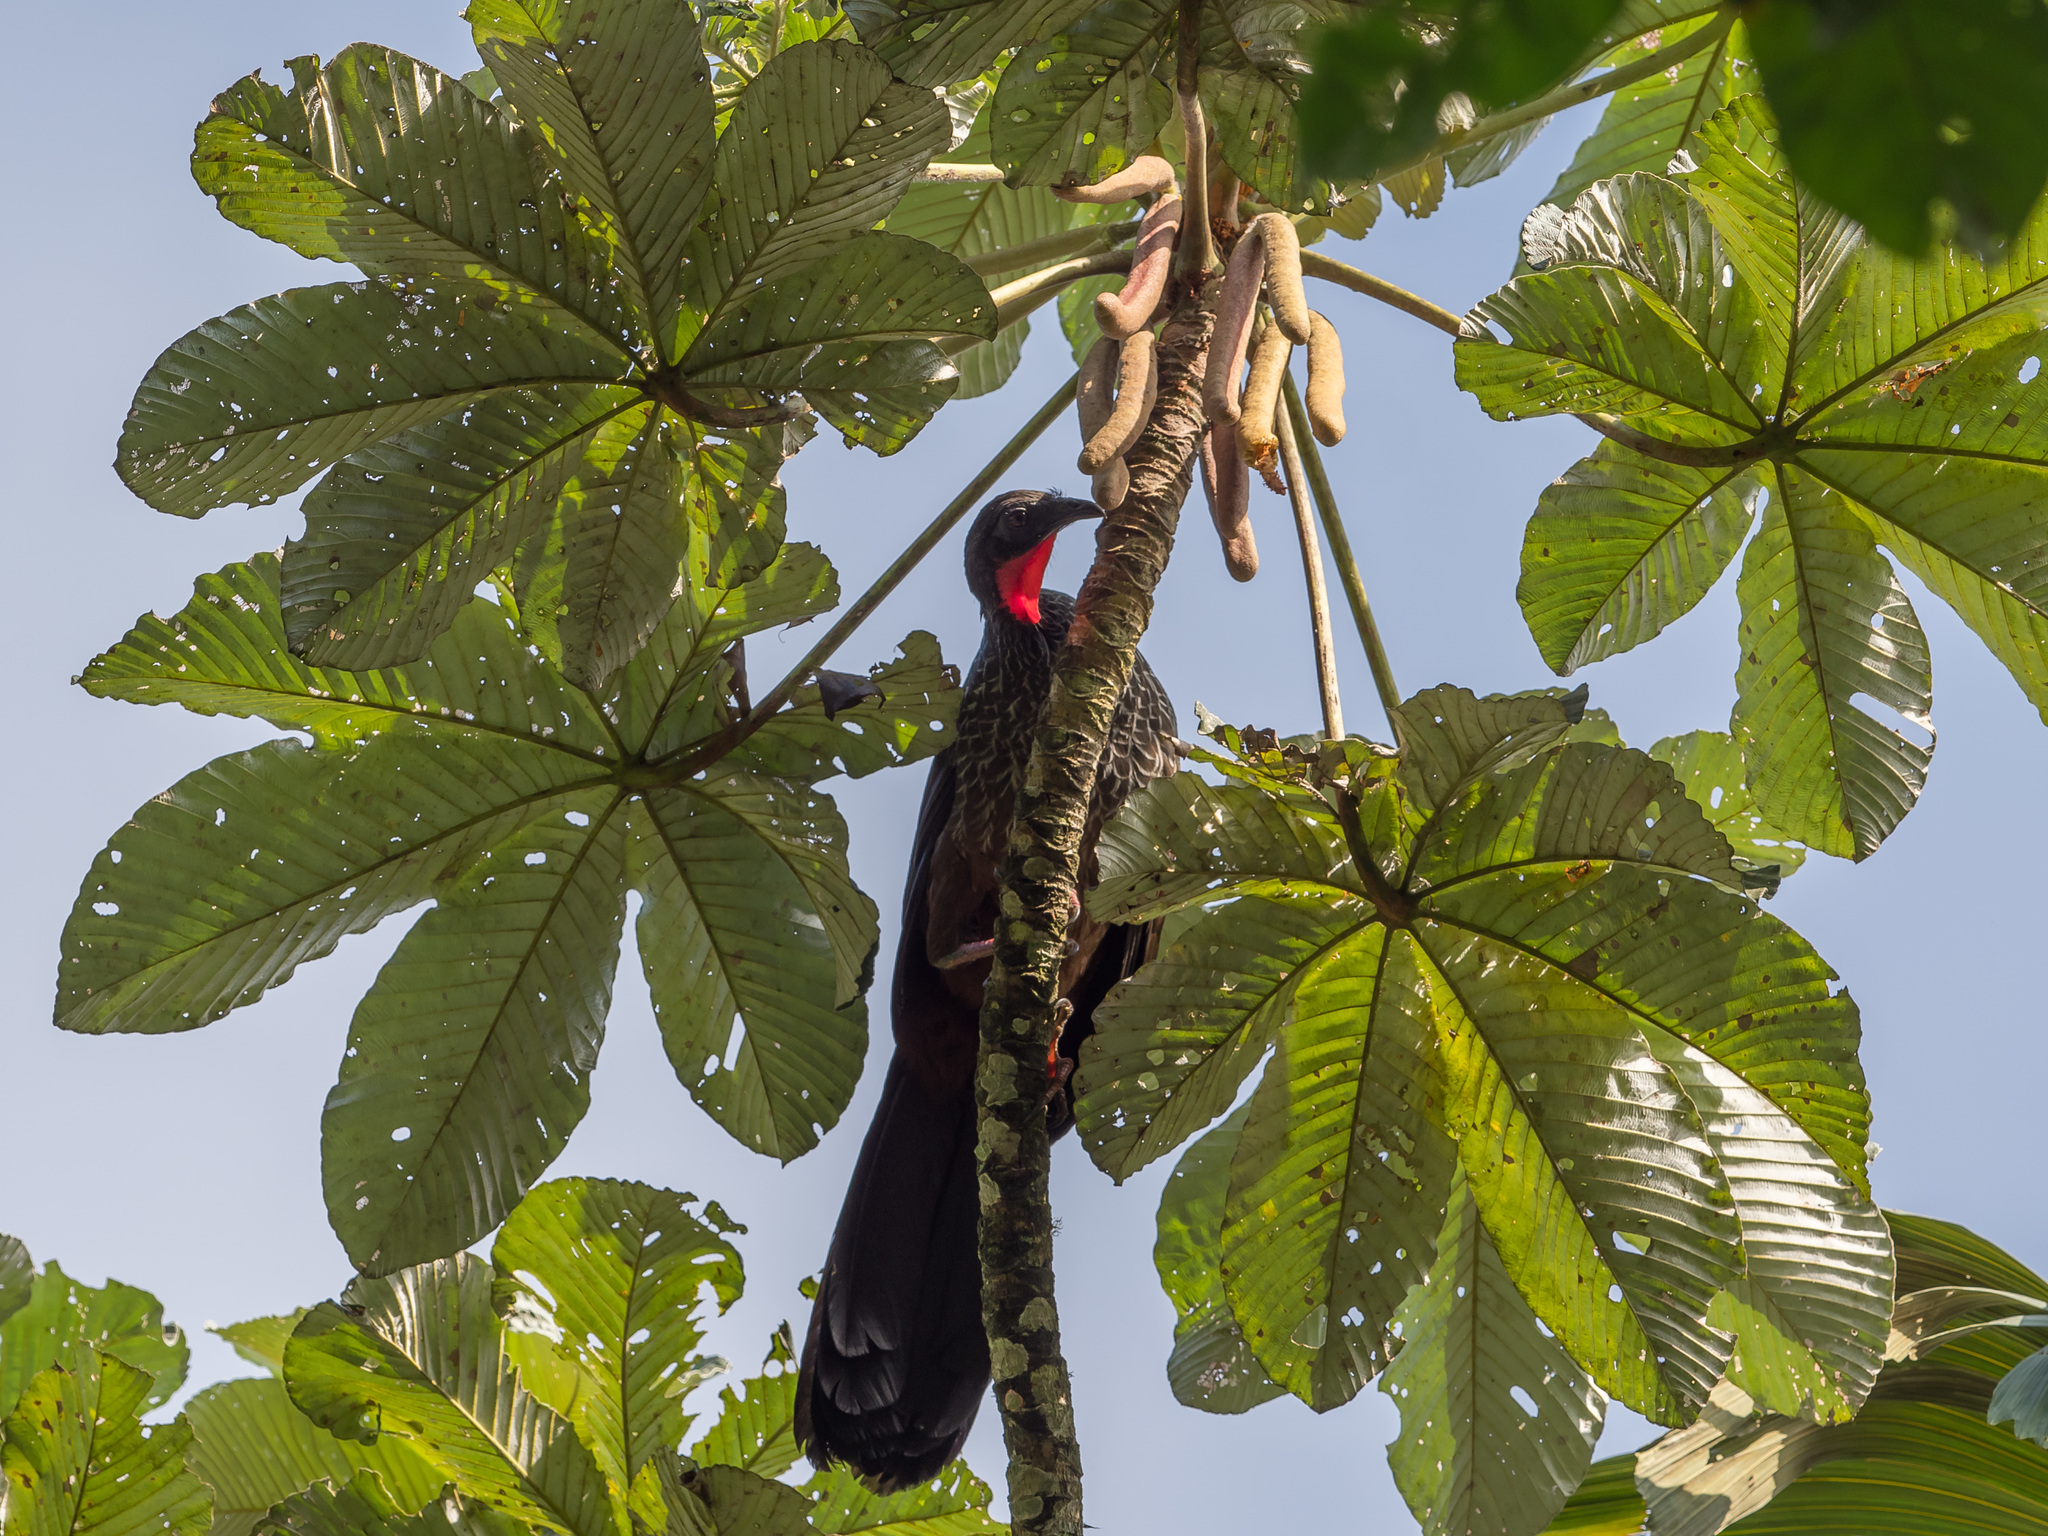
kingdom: Animalia
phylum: Chordata
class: Aves
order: Galliformes
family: Cracidae
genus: Penelope
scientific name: Penelope perspicax
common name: Cauca guan
